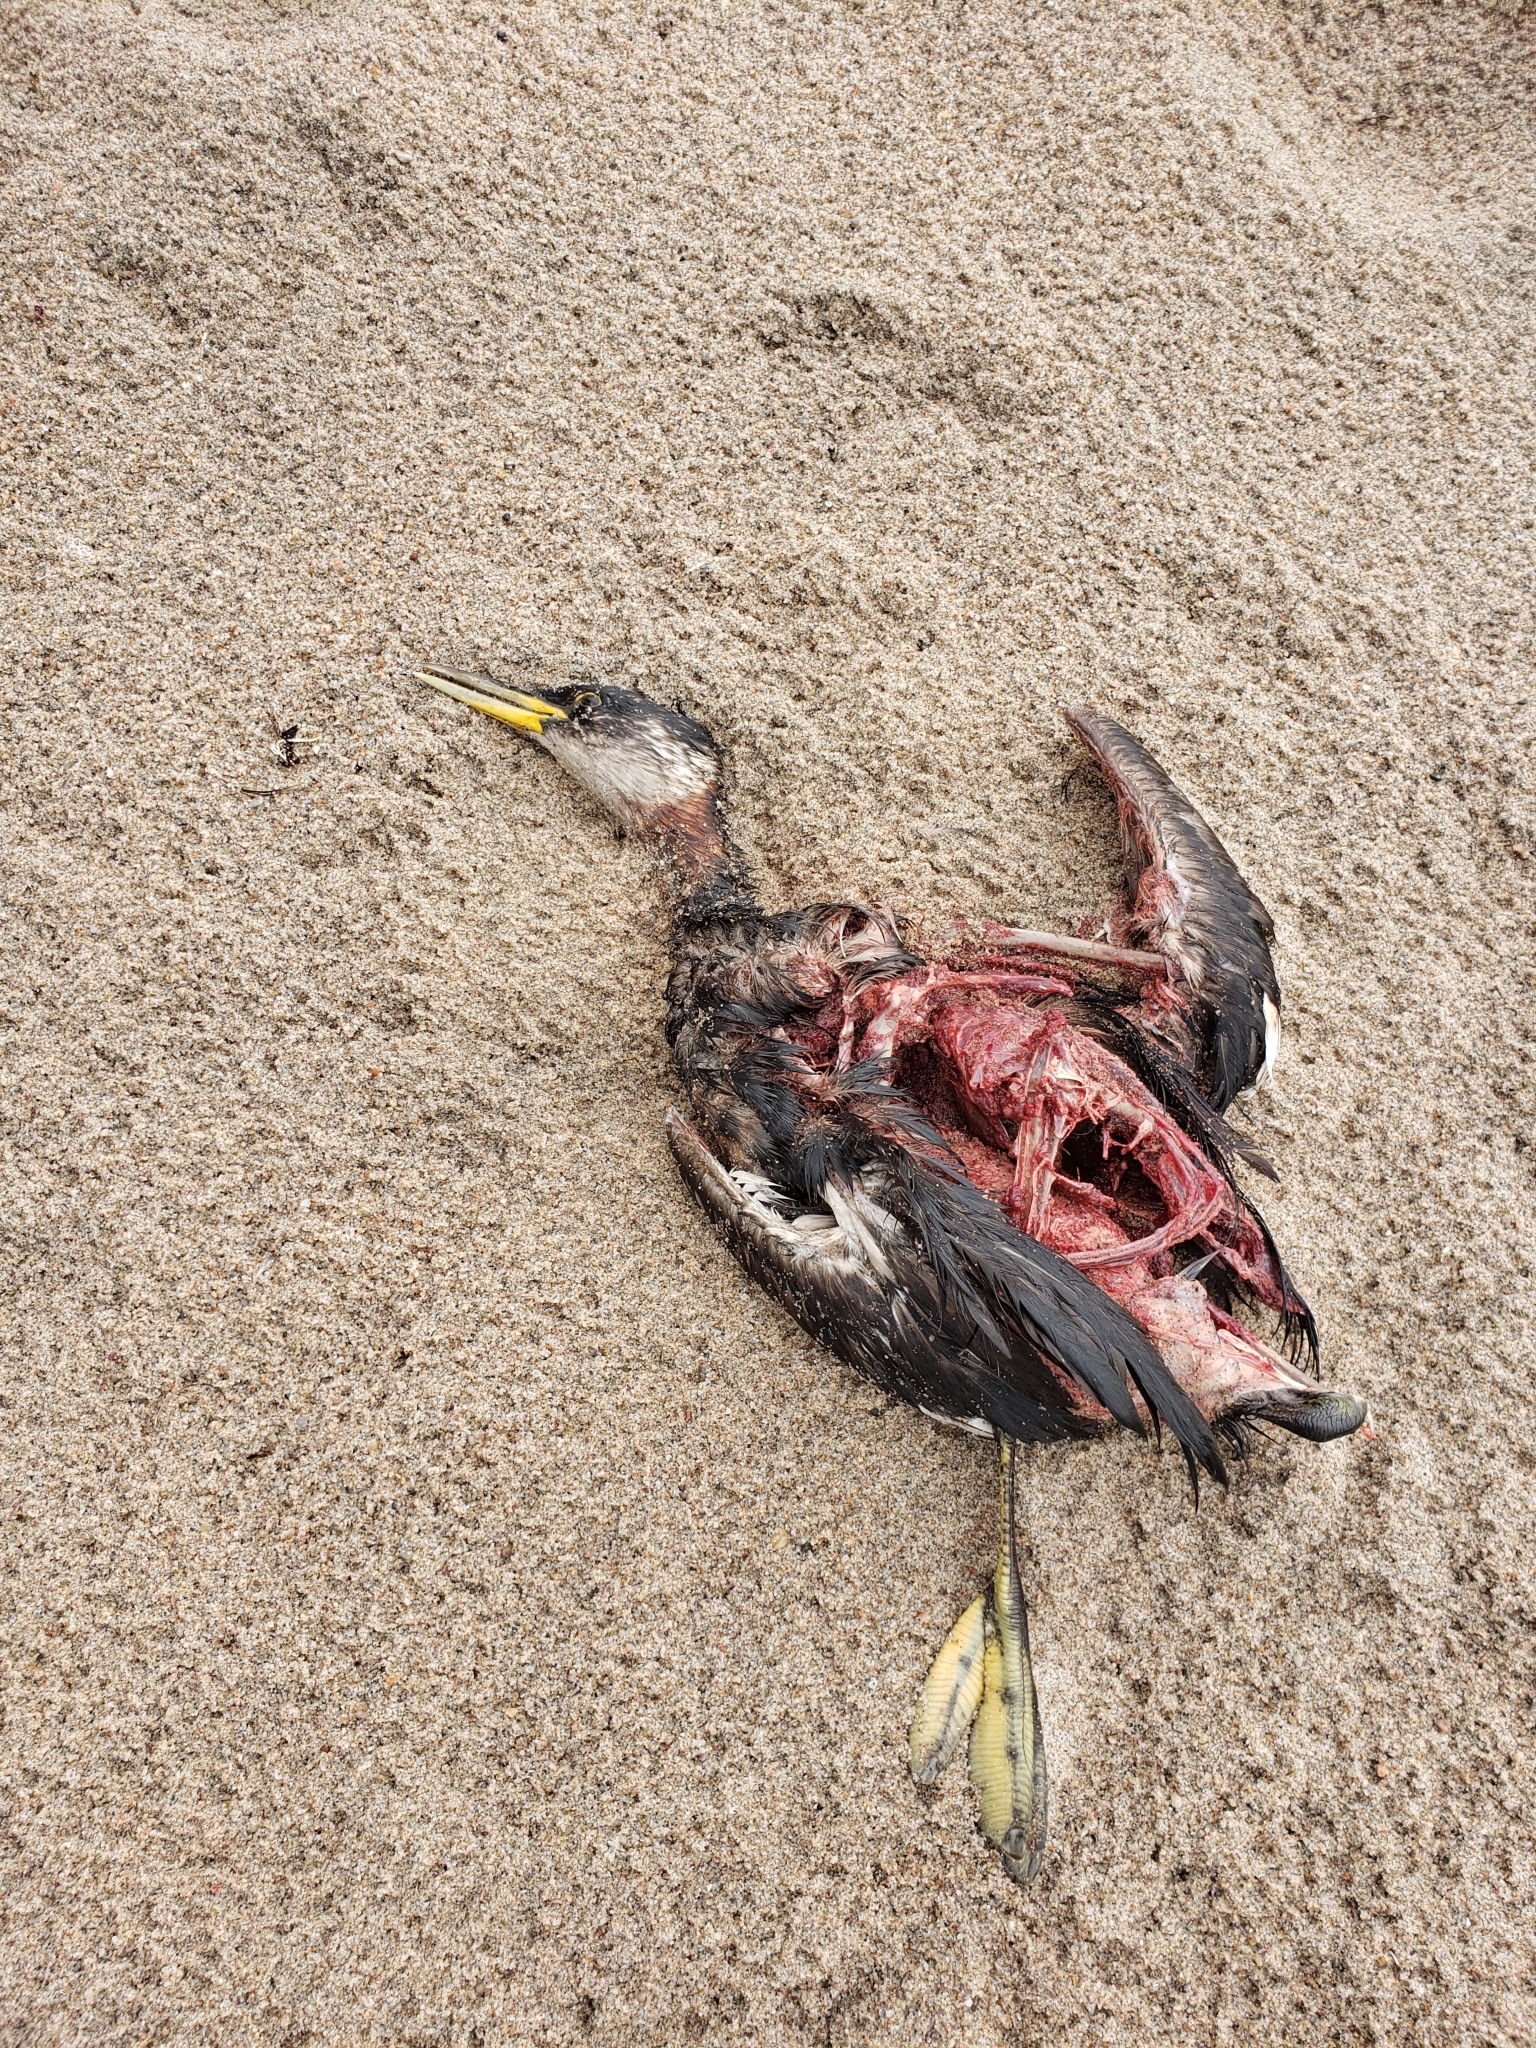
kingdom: Animalia
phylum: Chordata
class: Aves
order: Podicipediformes
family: Podicipedidae
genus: Podiceps
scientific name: Podiceps grisegena
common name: Red-necked grebe
